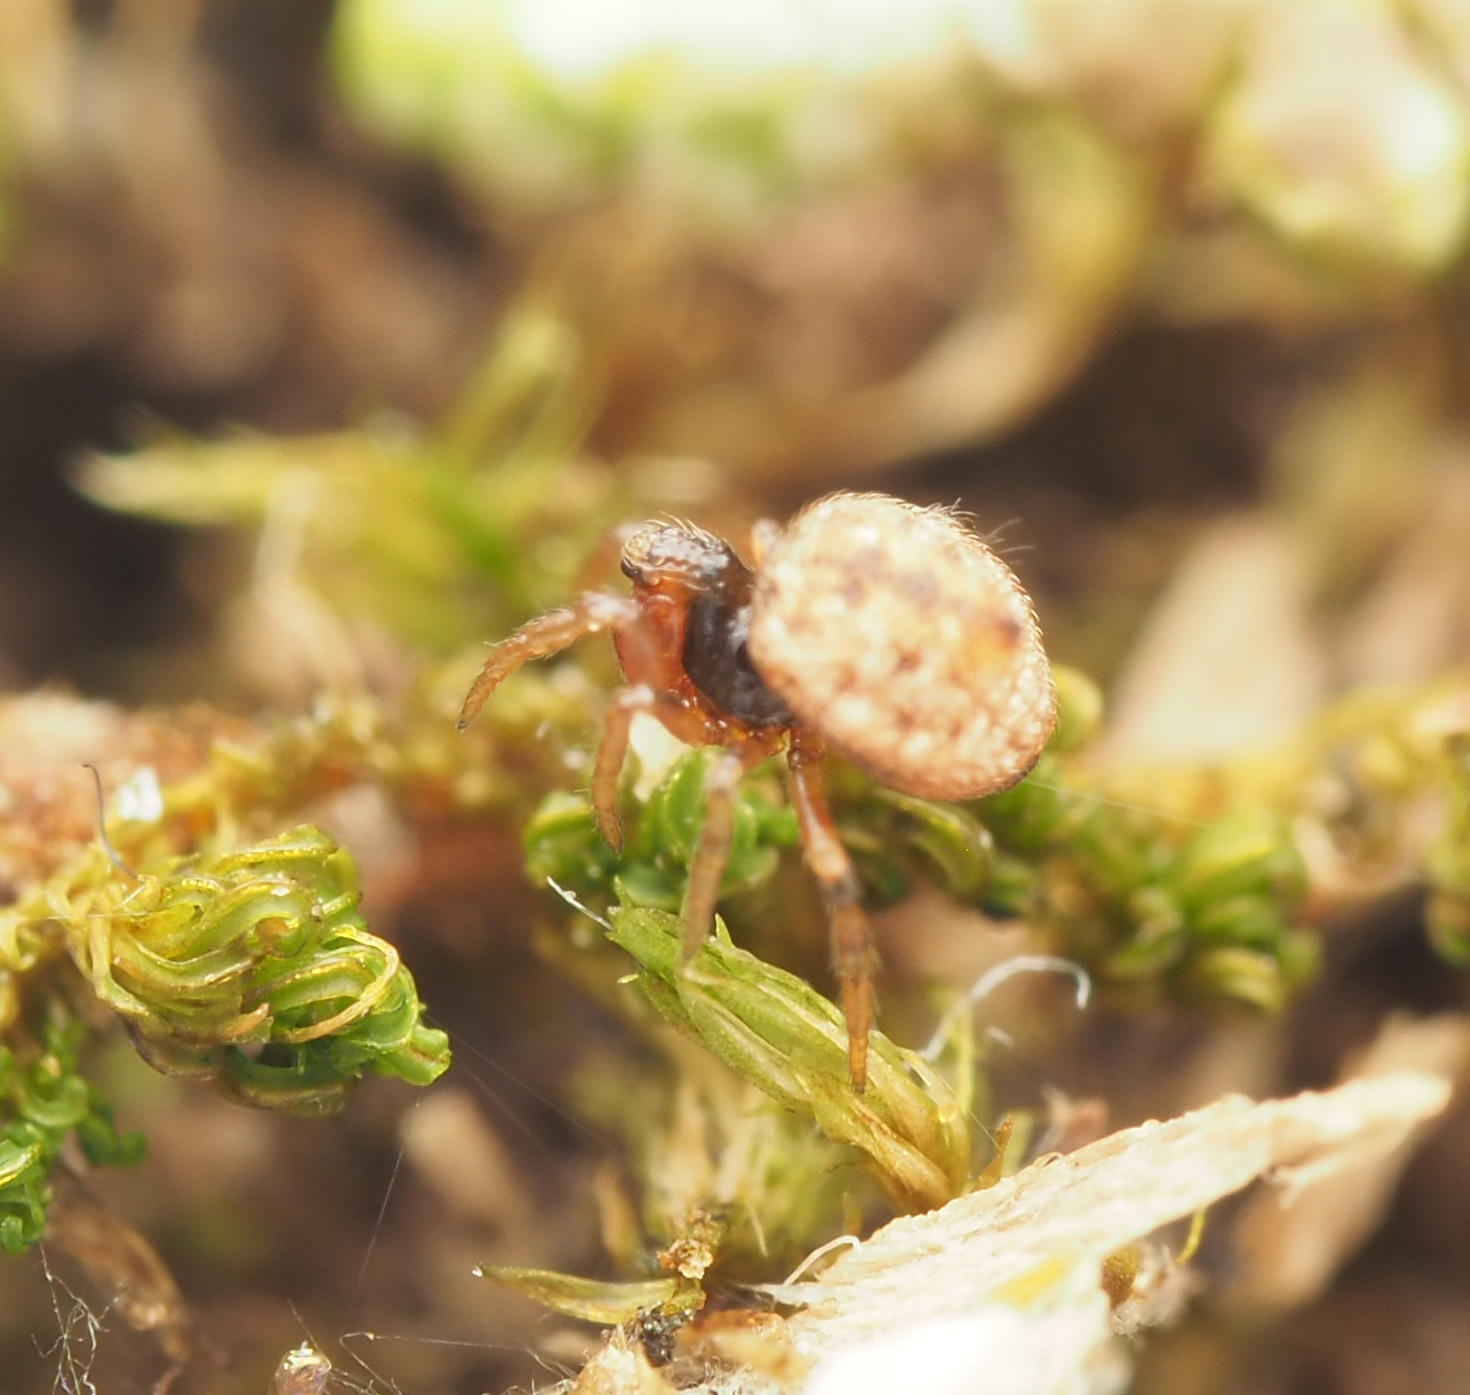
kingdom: Animalia
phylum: Arthropoda
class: Arachnida
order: Araneae
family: Theridiidae
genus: Phoroncidia
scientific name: Phoroncidia trituberculata
